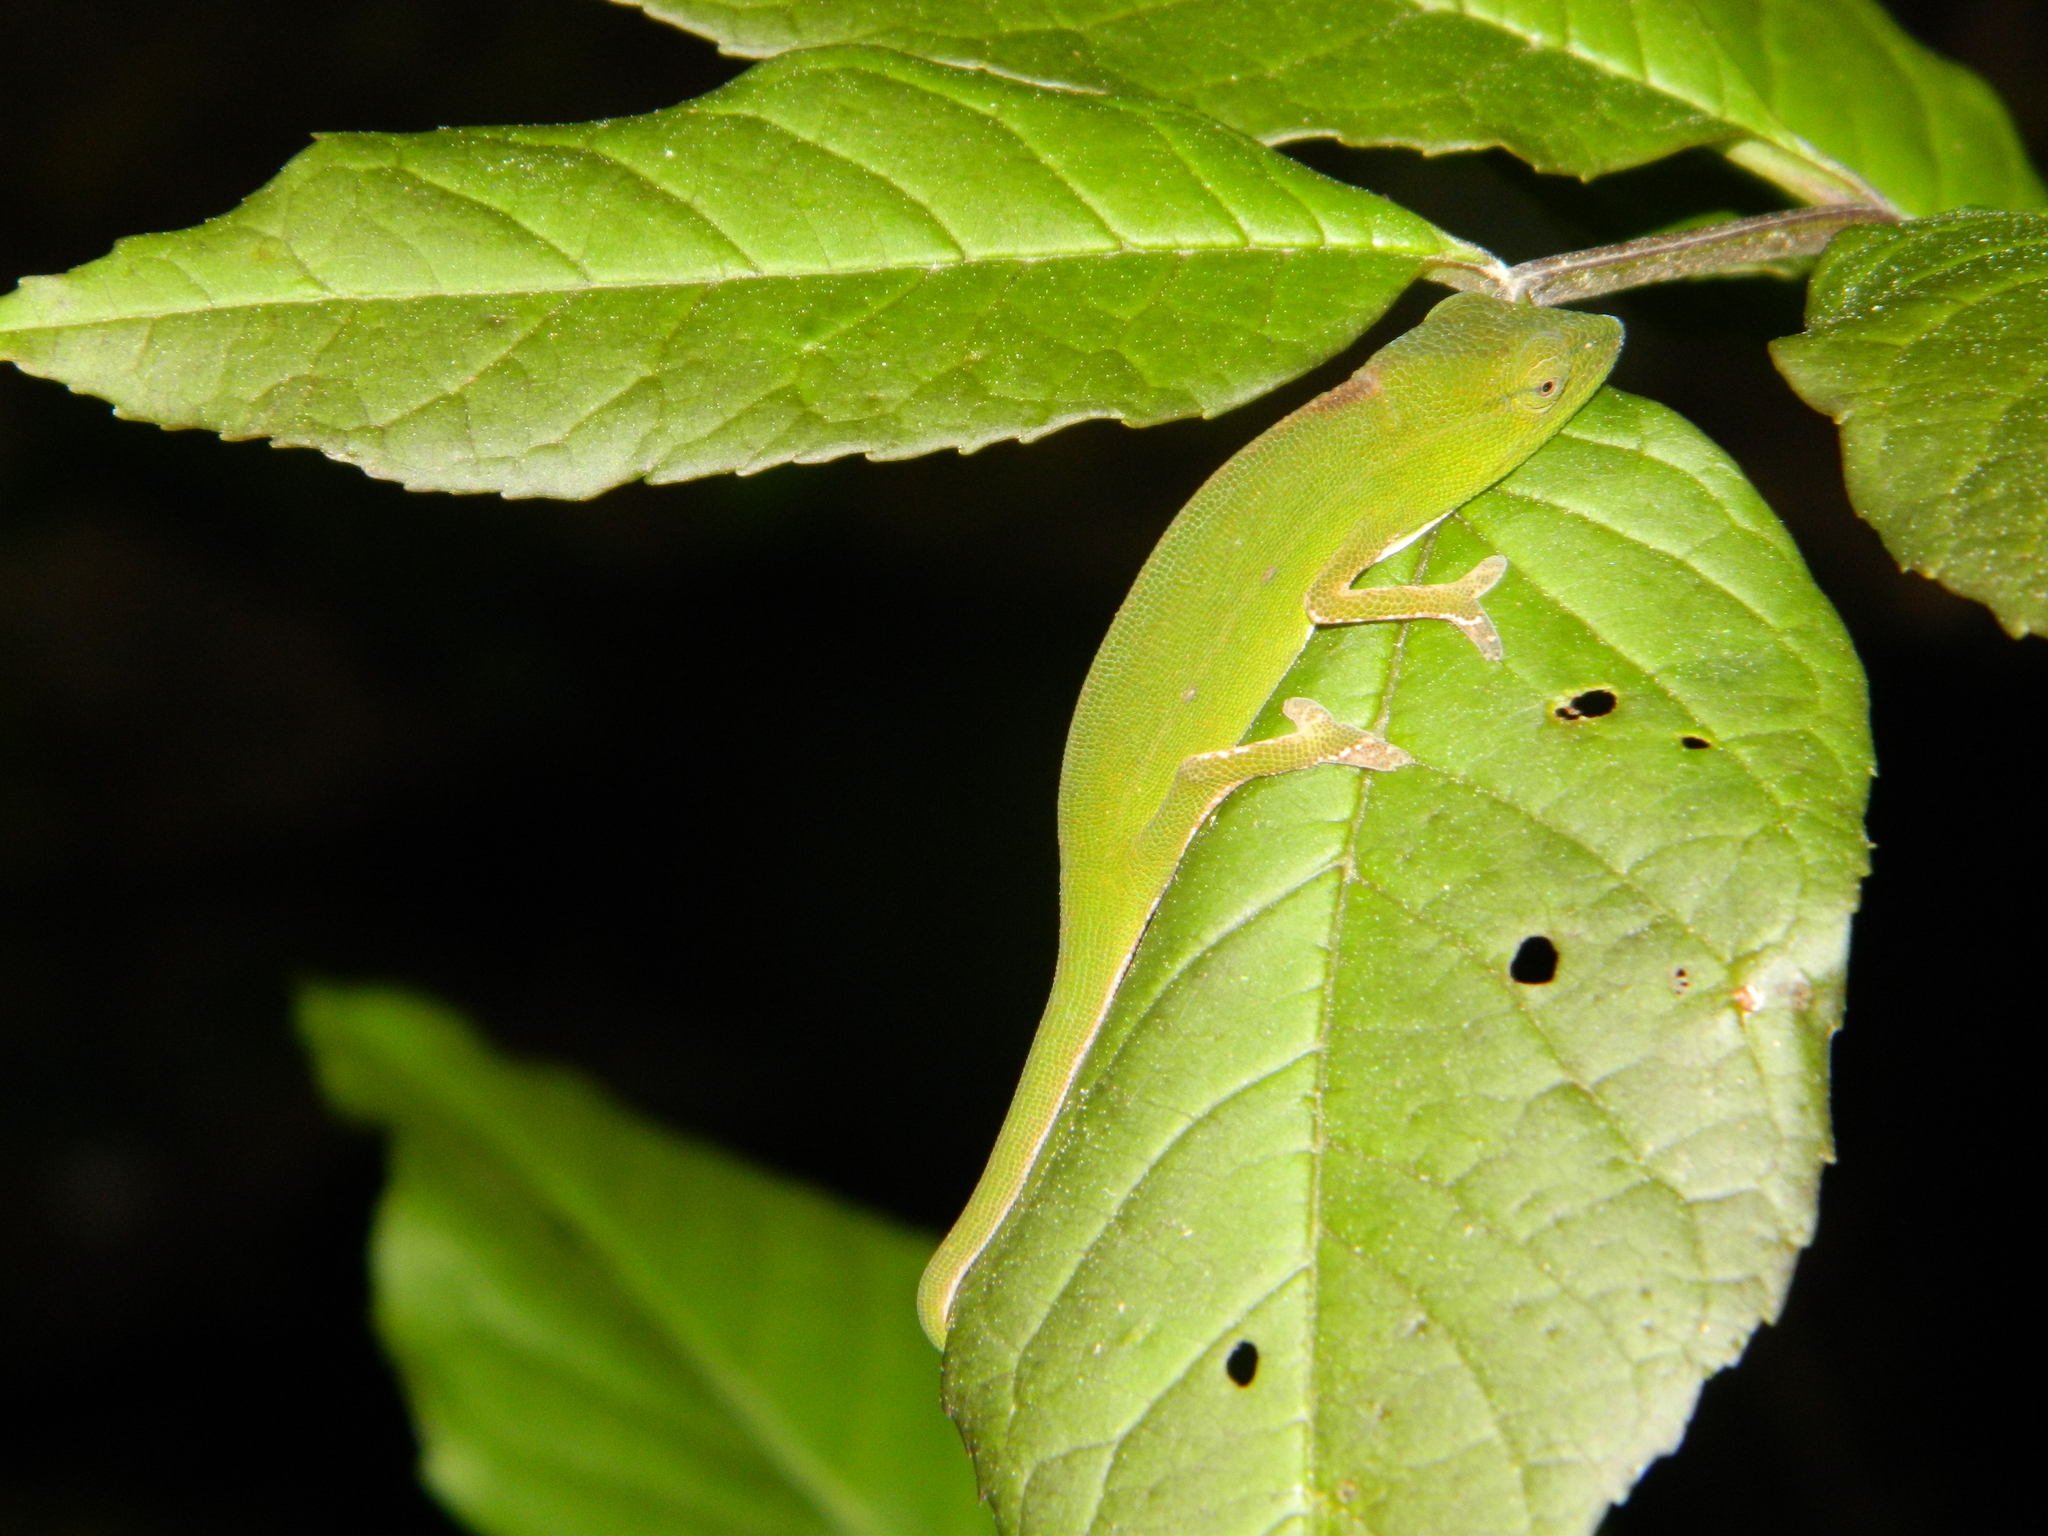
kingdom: Animalia
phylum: Chordata
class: Squamata
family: Chamaeleonidae
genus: Calumma
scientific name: Calumma gastrotaenia
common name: Short-nosed chameleon
